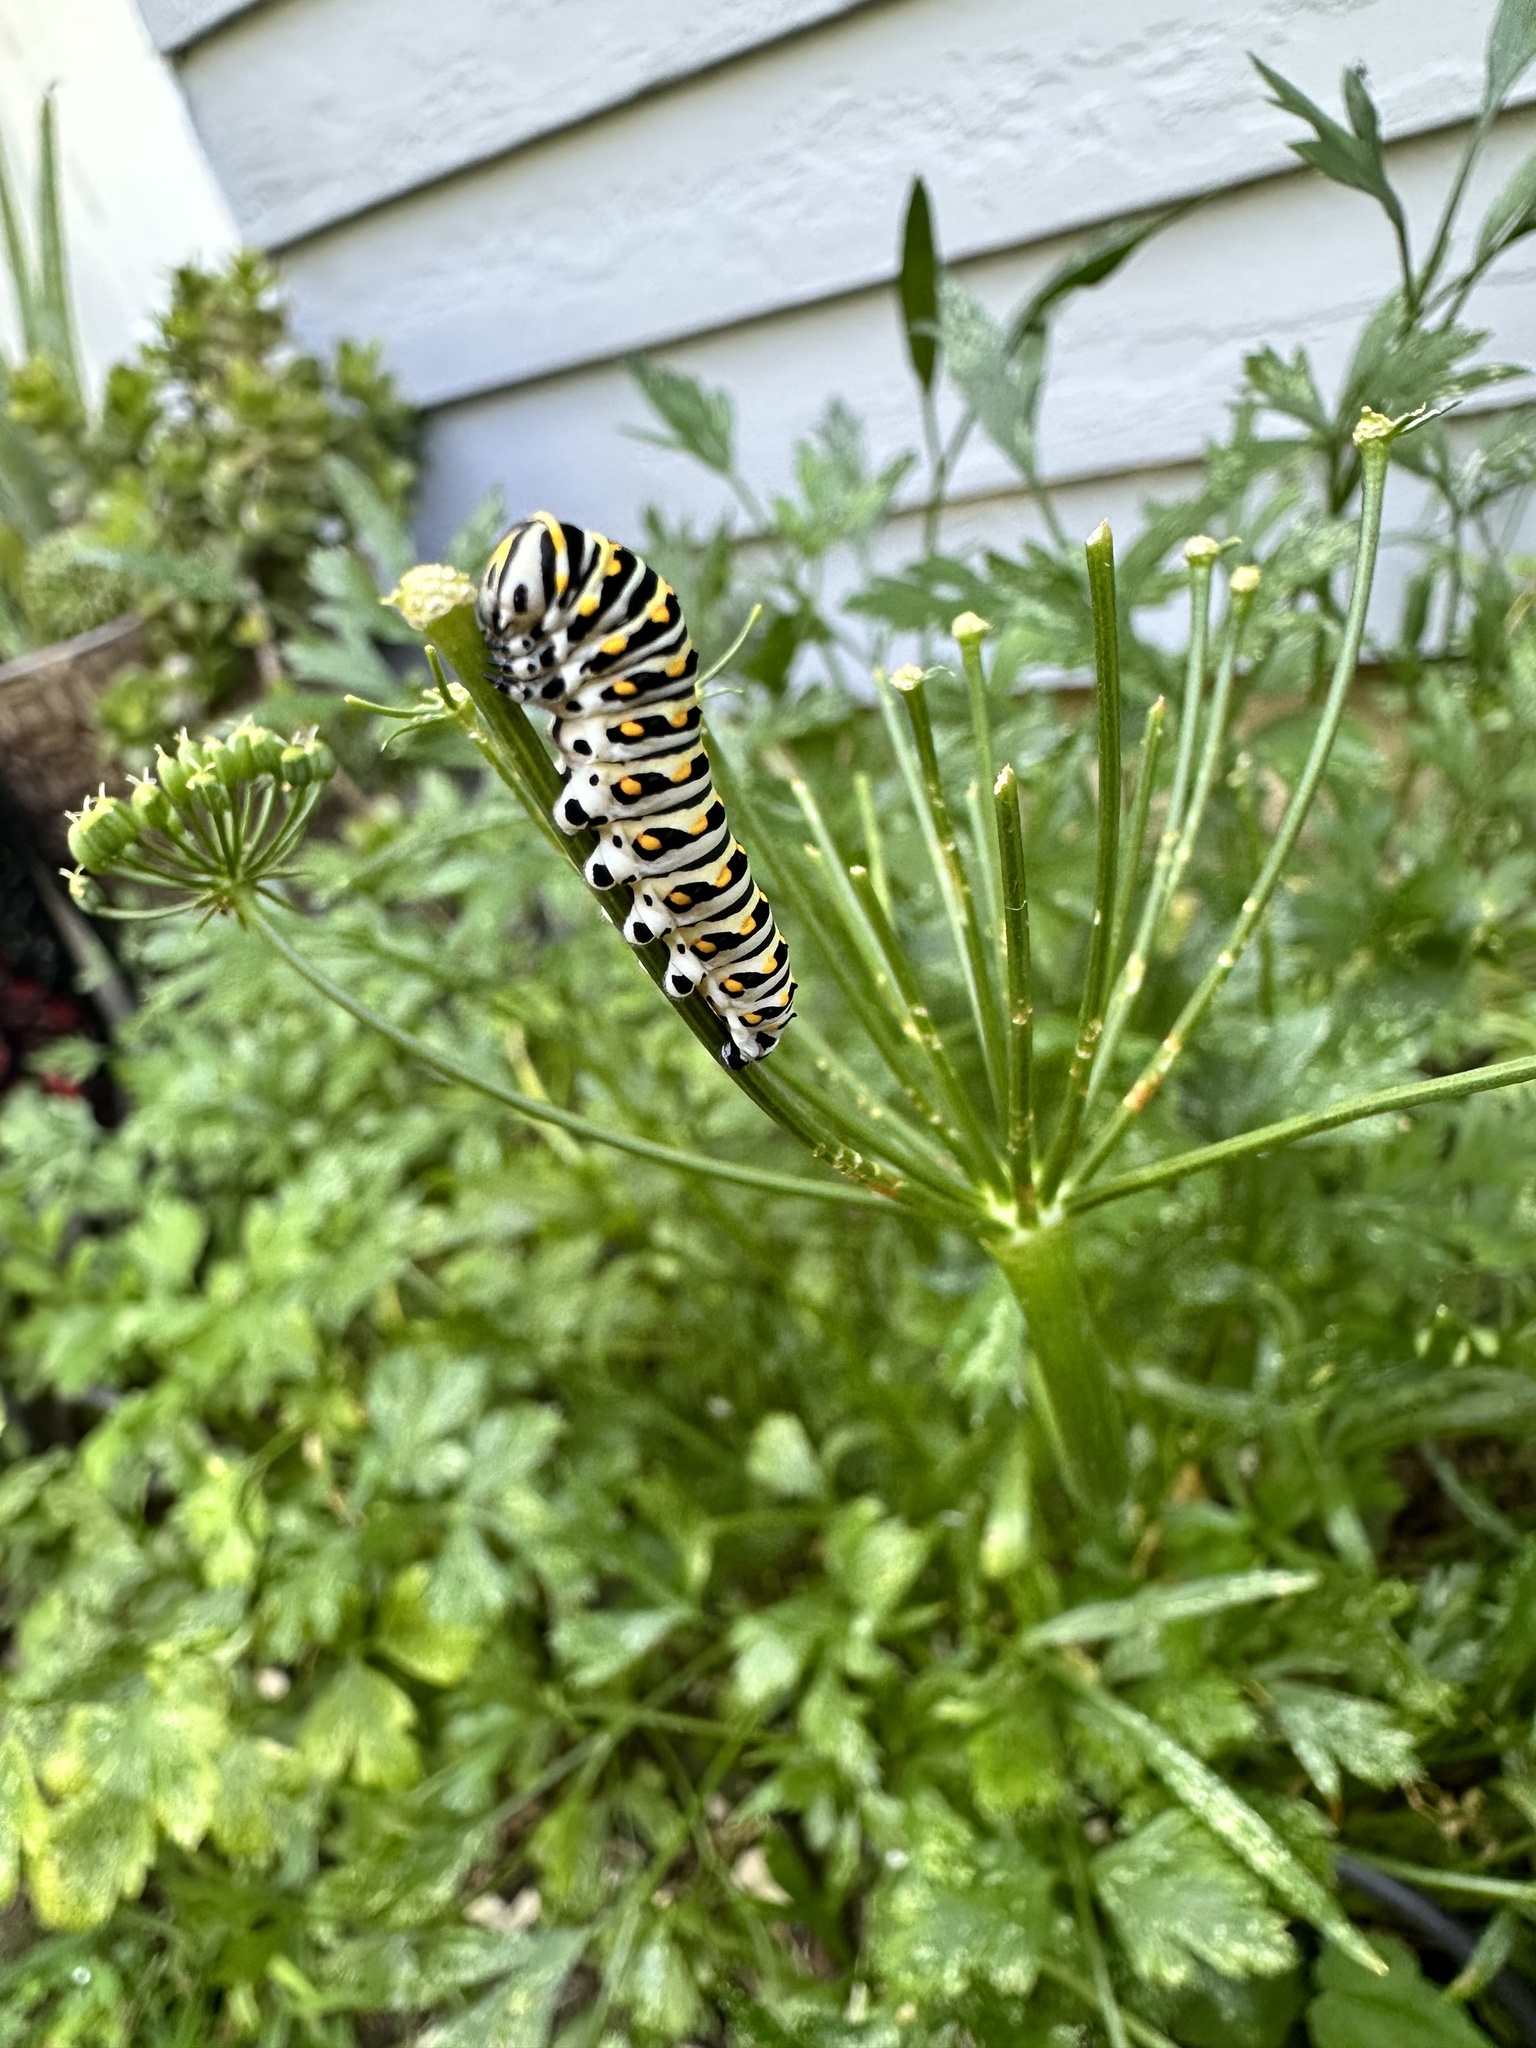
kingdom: Animalia
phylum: Arthropoda
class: Insecta
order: Lepidoptera
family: Papilionidae
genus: Papilio
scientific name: Papilio polyxenes
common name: Black swallowtail
